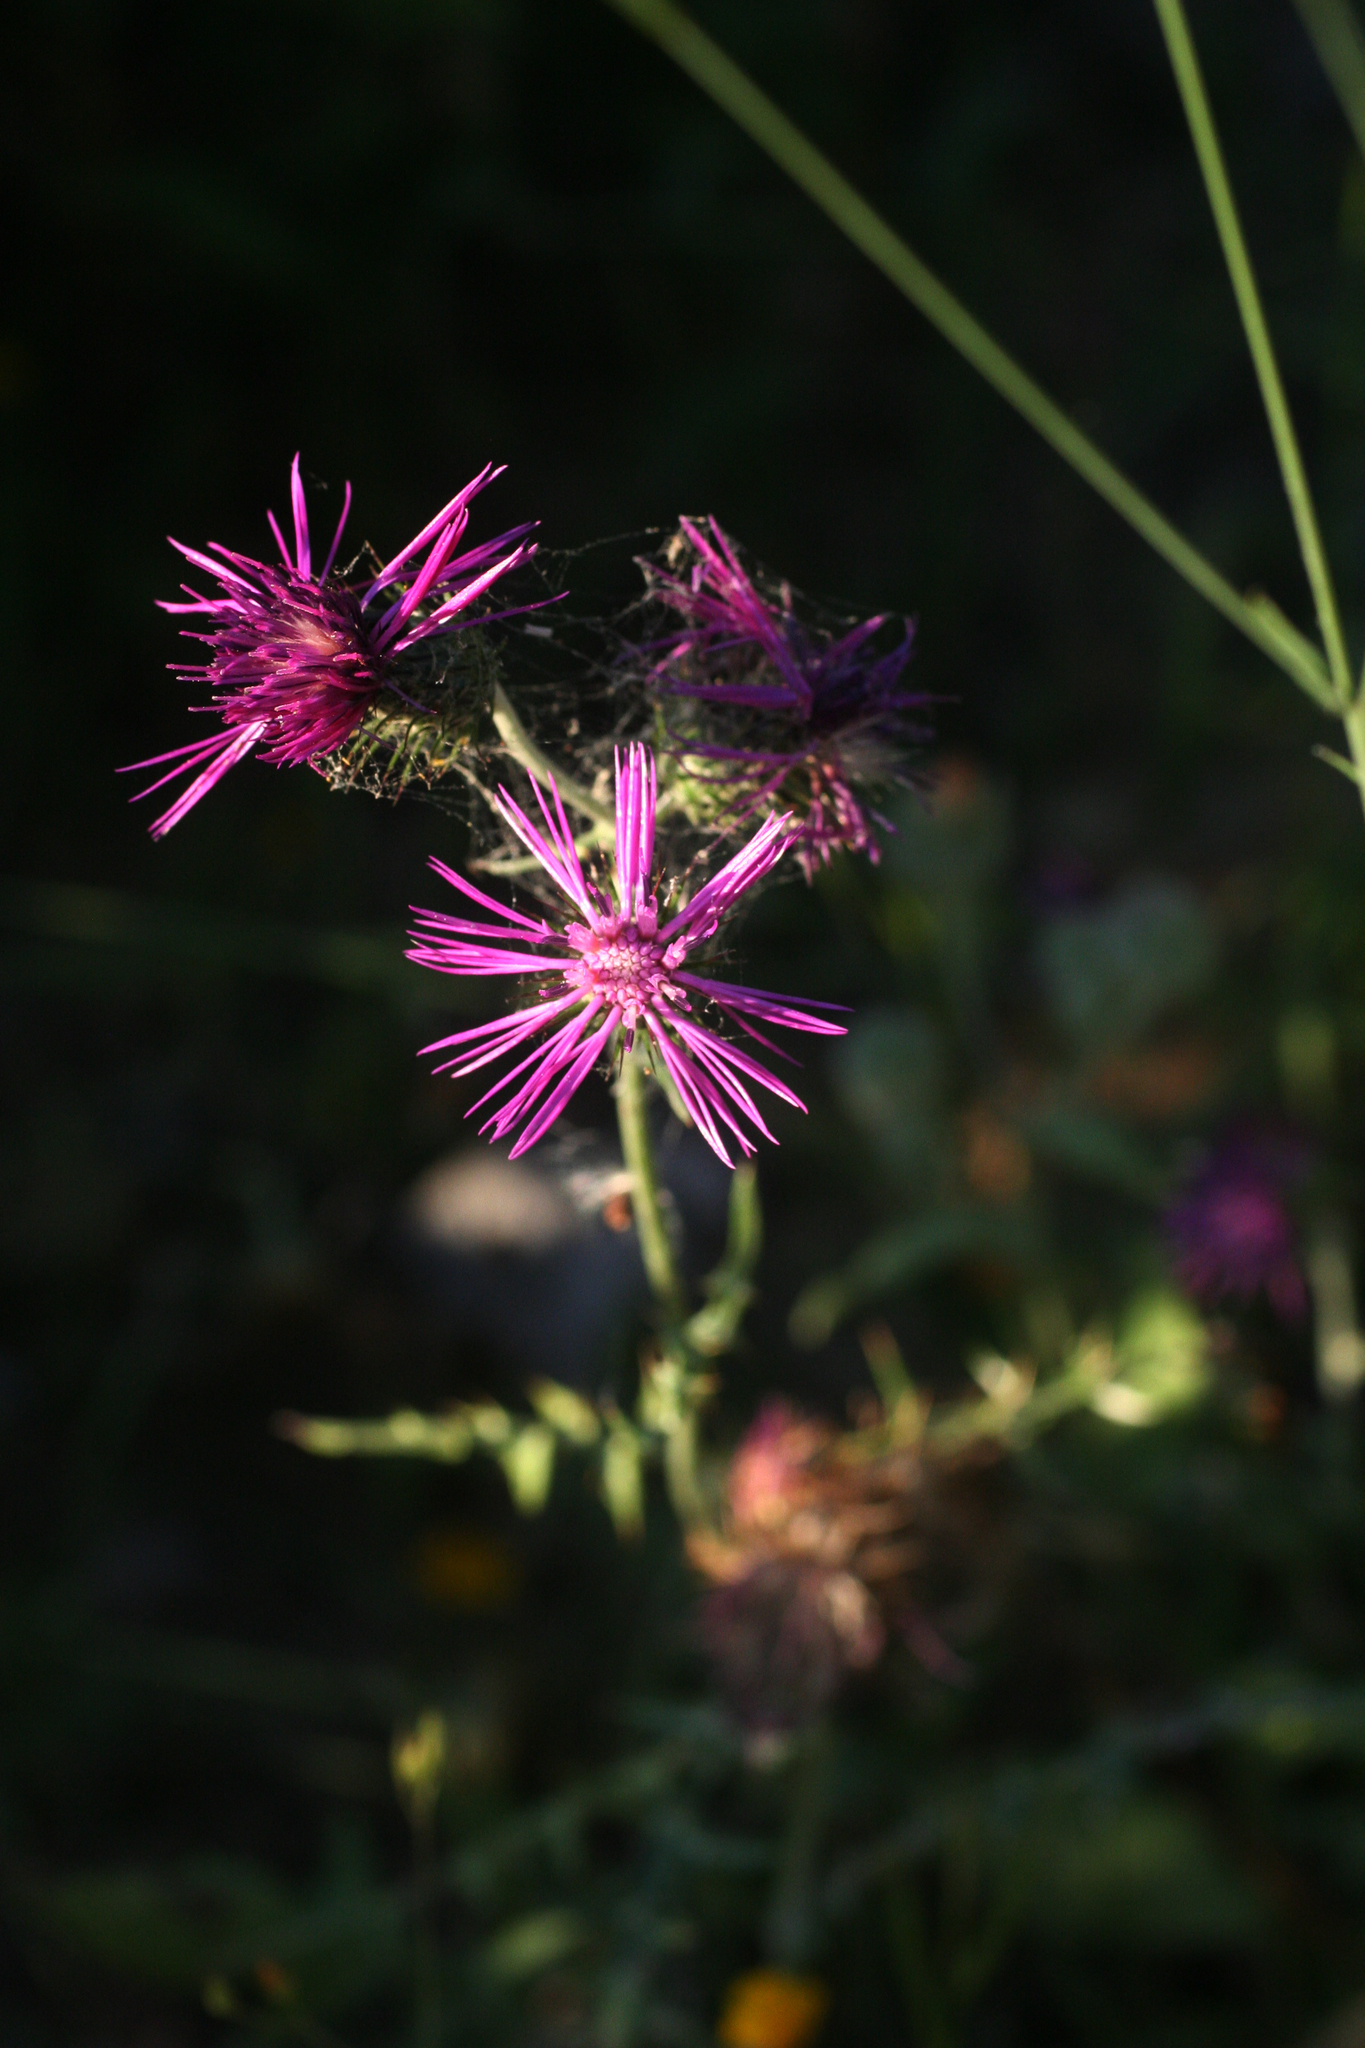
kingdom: Plantae
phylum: Tracheophyta
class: Magnoliopsida
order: Asterales
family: Asteraceae
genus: Galactites
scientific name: Galactites tomentosa
